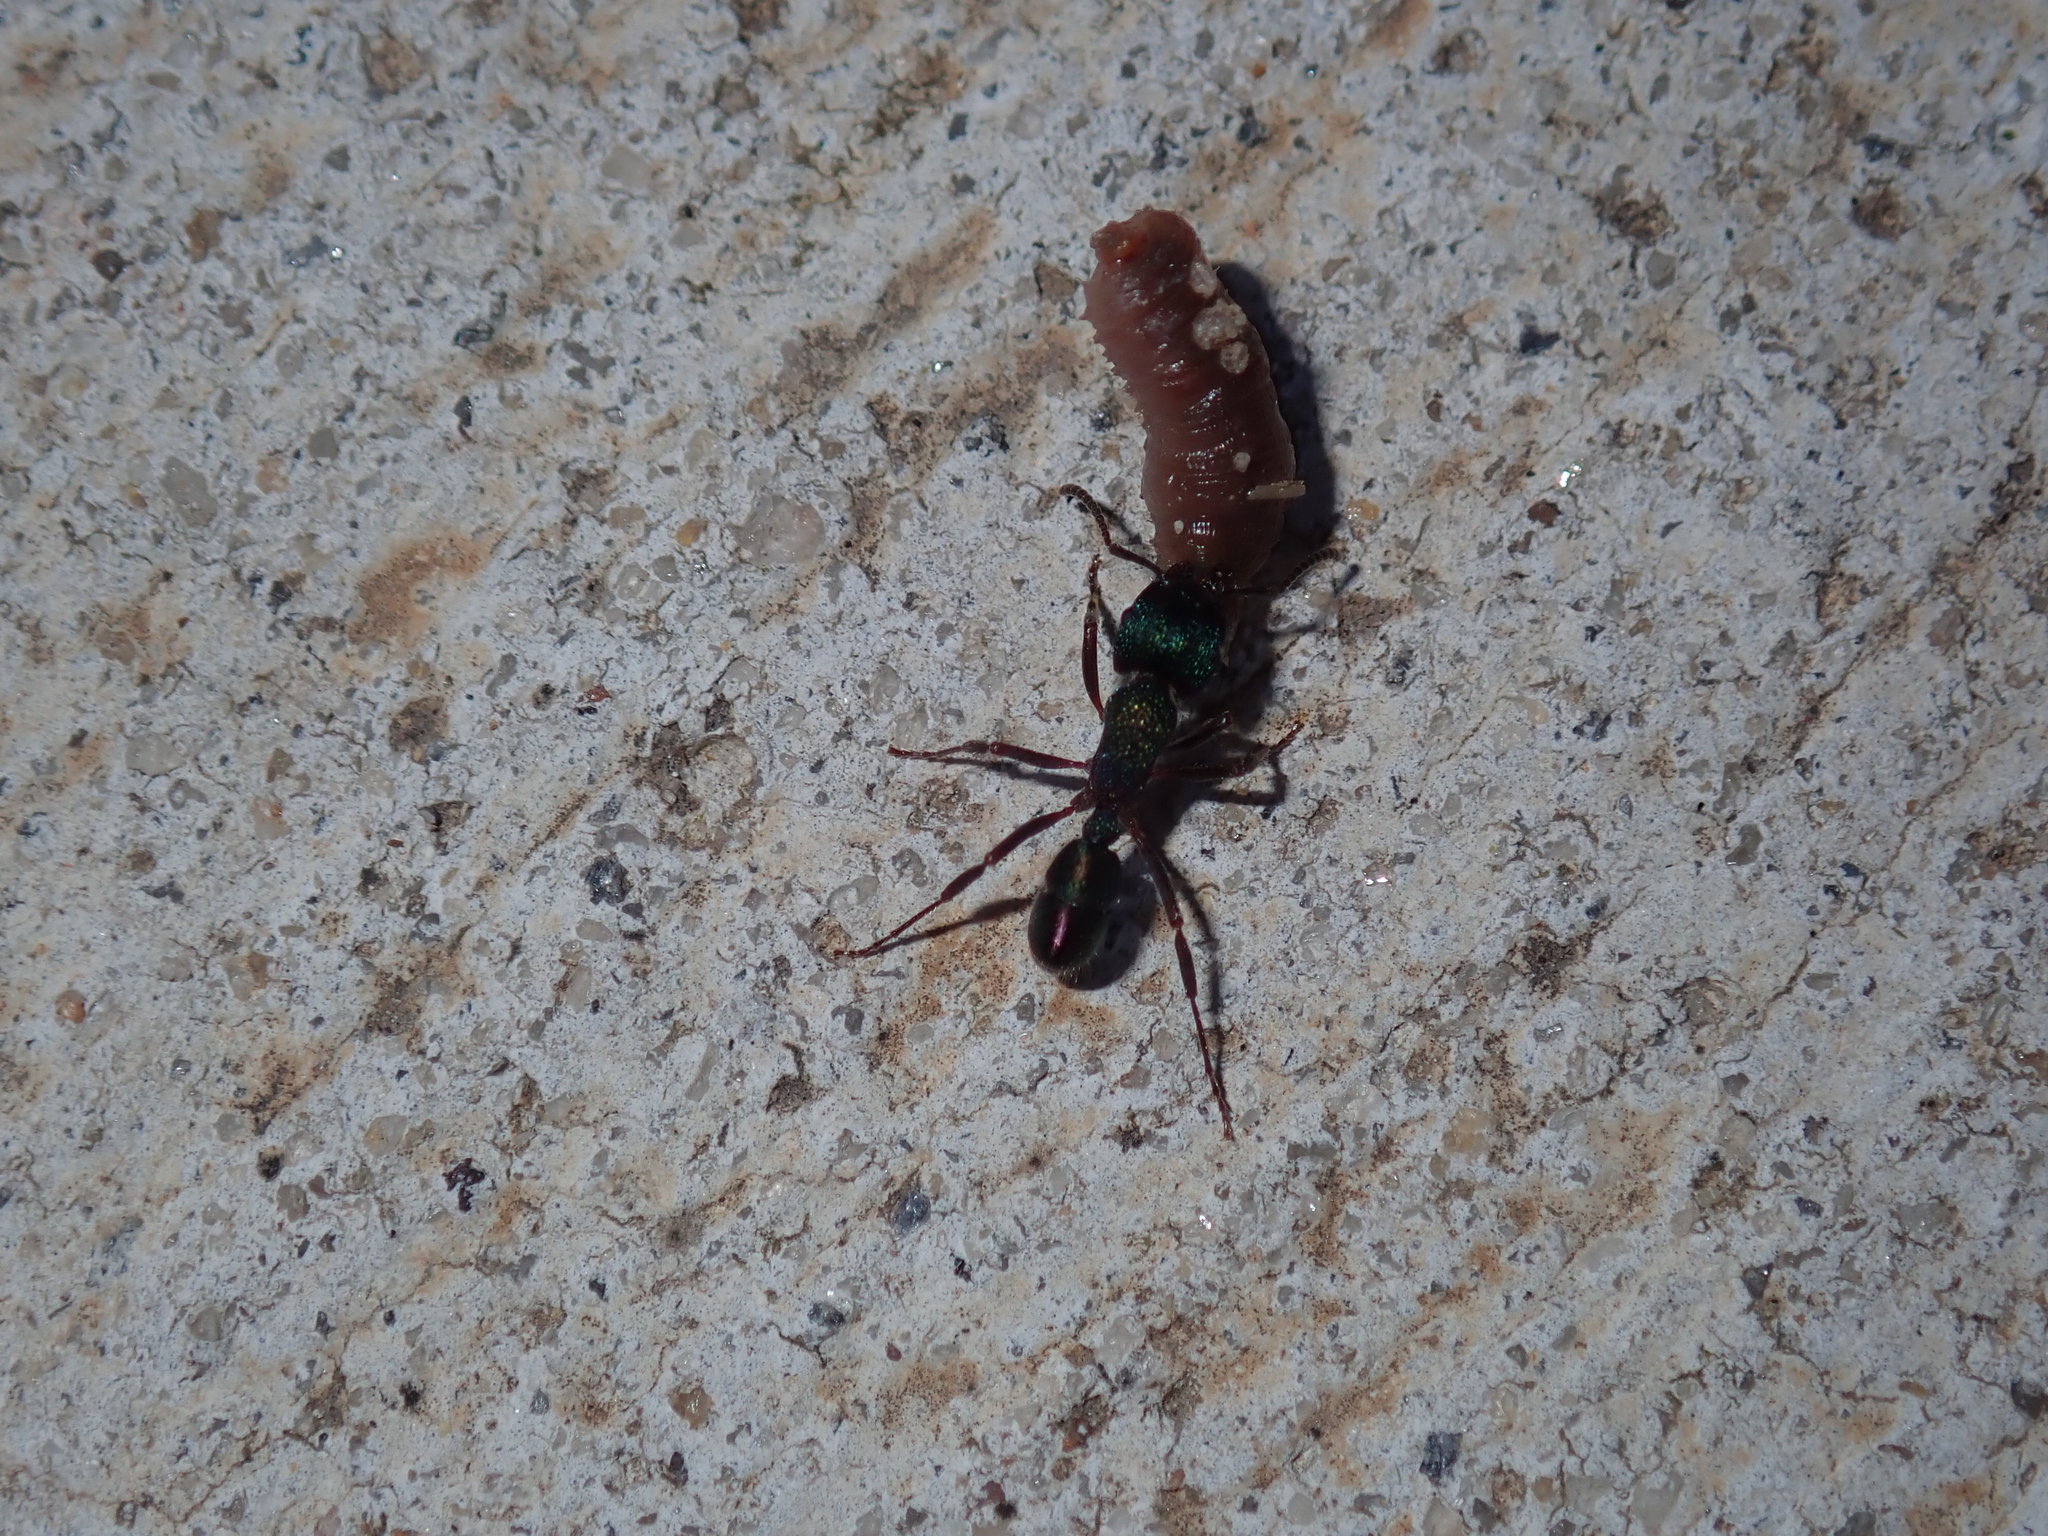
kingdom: Animalia
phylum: Arthropoda
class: Insecta
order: Hymenoptera
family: Formicidae
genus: Rhytidoponera
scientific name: Rhytidoponera metallica
